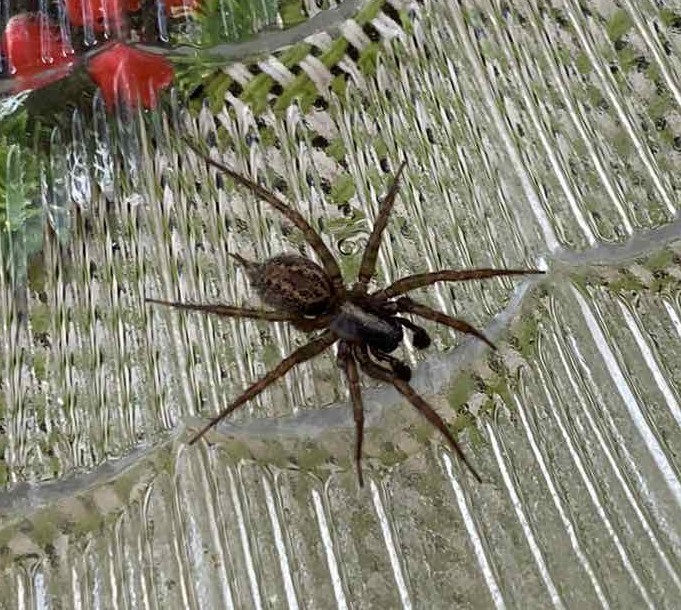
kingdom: Animalia
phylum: Arthropoda
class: Arachnida
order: Araneae
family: Agelenidae
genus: Maimuna
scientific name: Maimuna vestita
